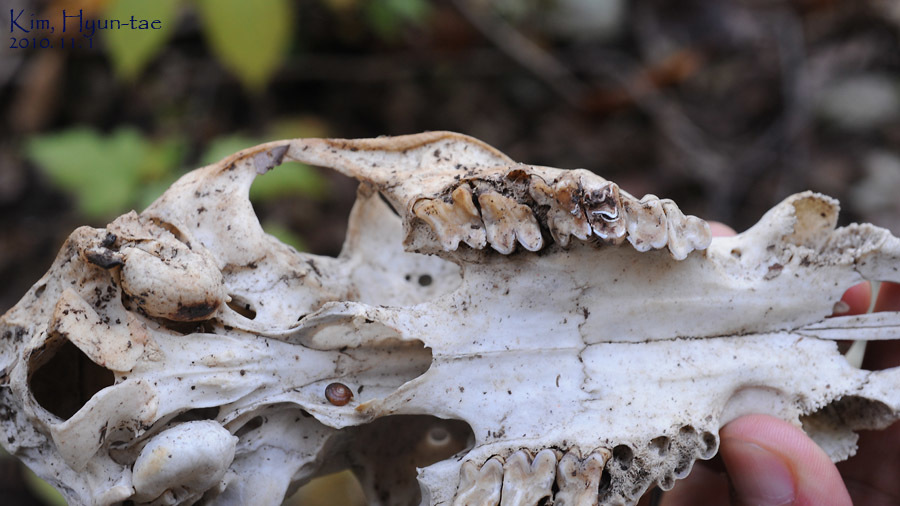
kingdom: Animalia
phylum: Chordata
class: Mammalia
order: Artiodactyla
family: Cervidae
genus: Hydropotes
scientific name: Hydropotes inermis
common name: Chinese water deer
